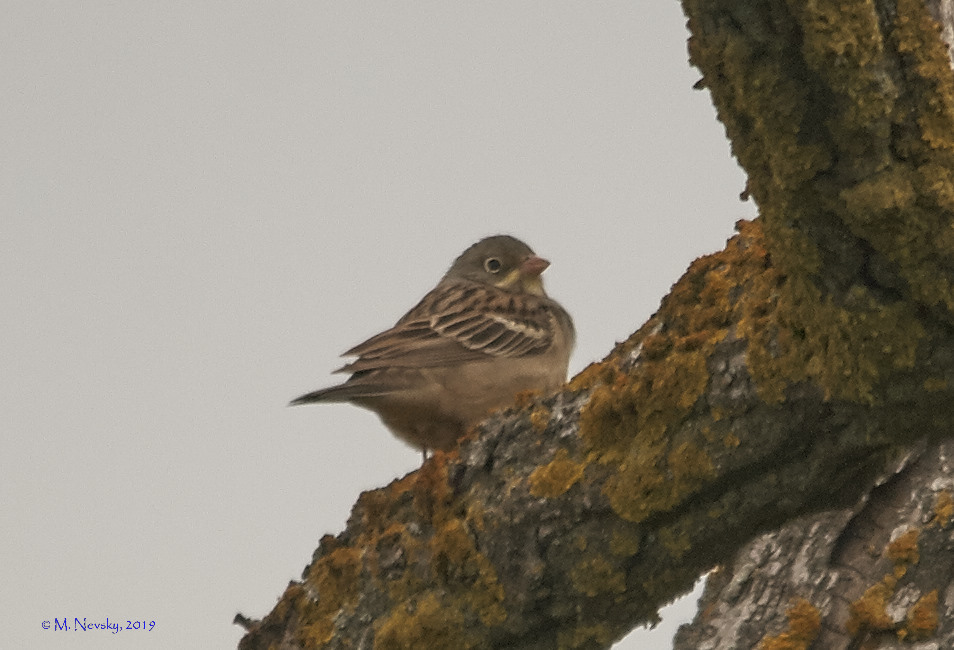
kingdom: Animalia
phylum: Chordata
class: Aves
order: Passeriformes
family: Emberizidae
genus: Emberiza
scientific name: Emberiza hortulana
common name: Ortolan bunting
